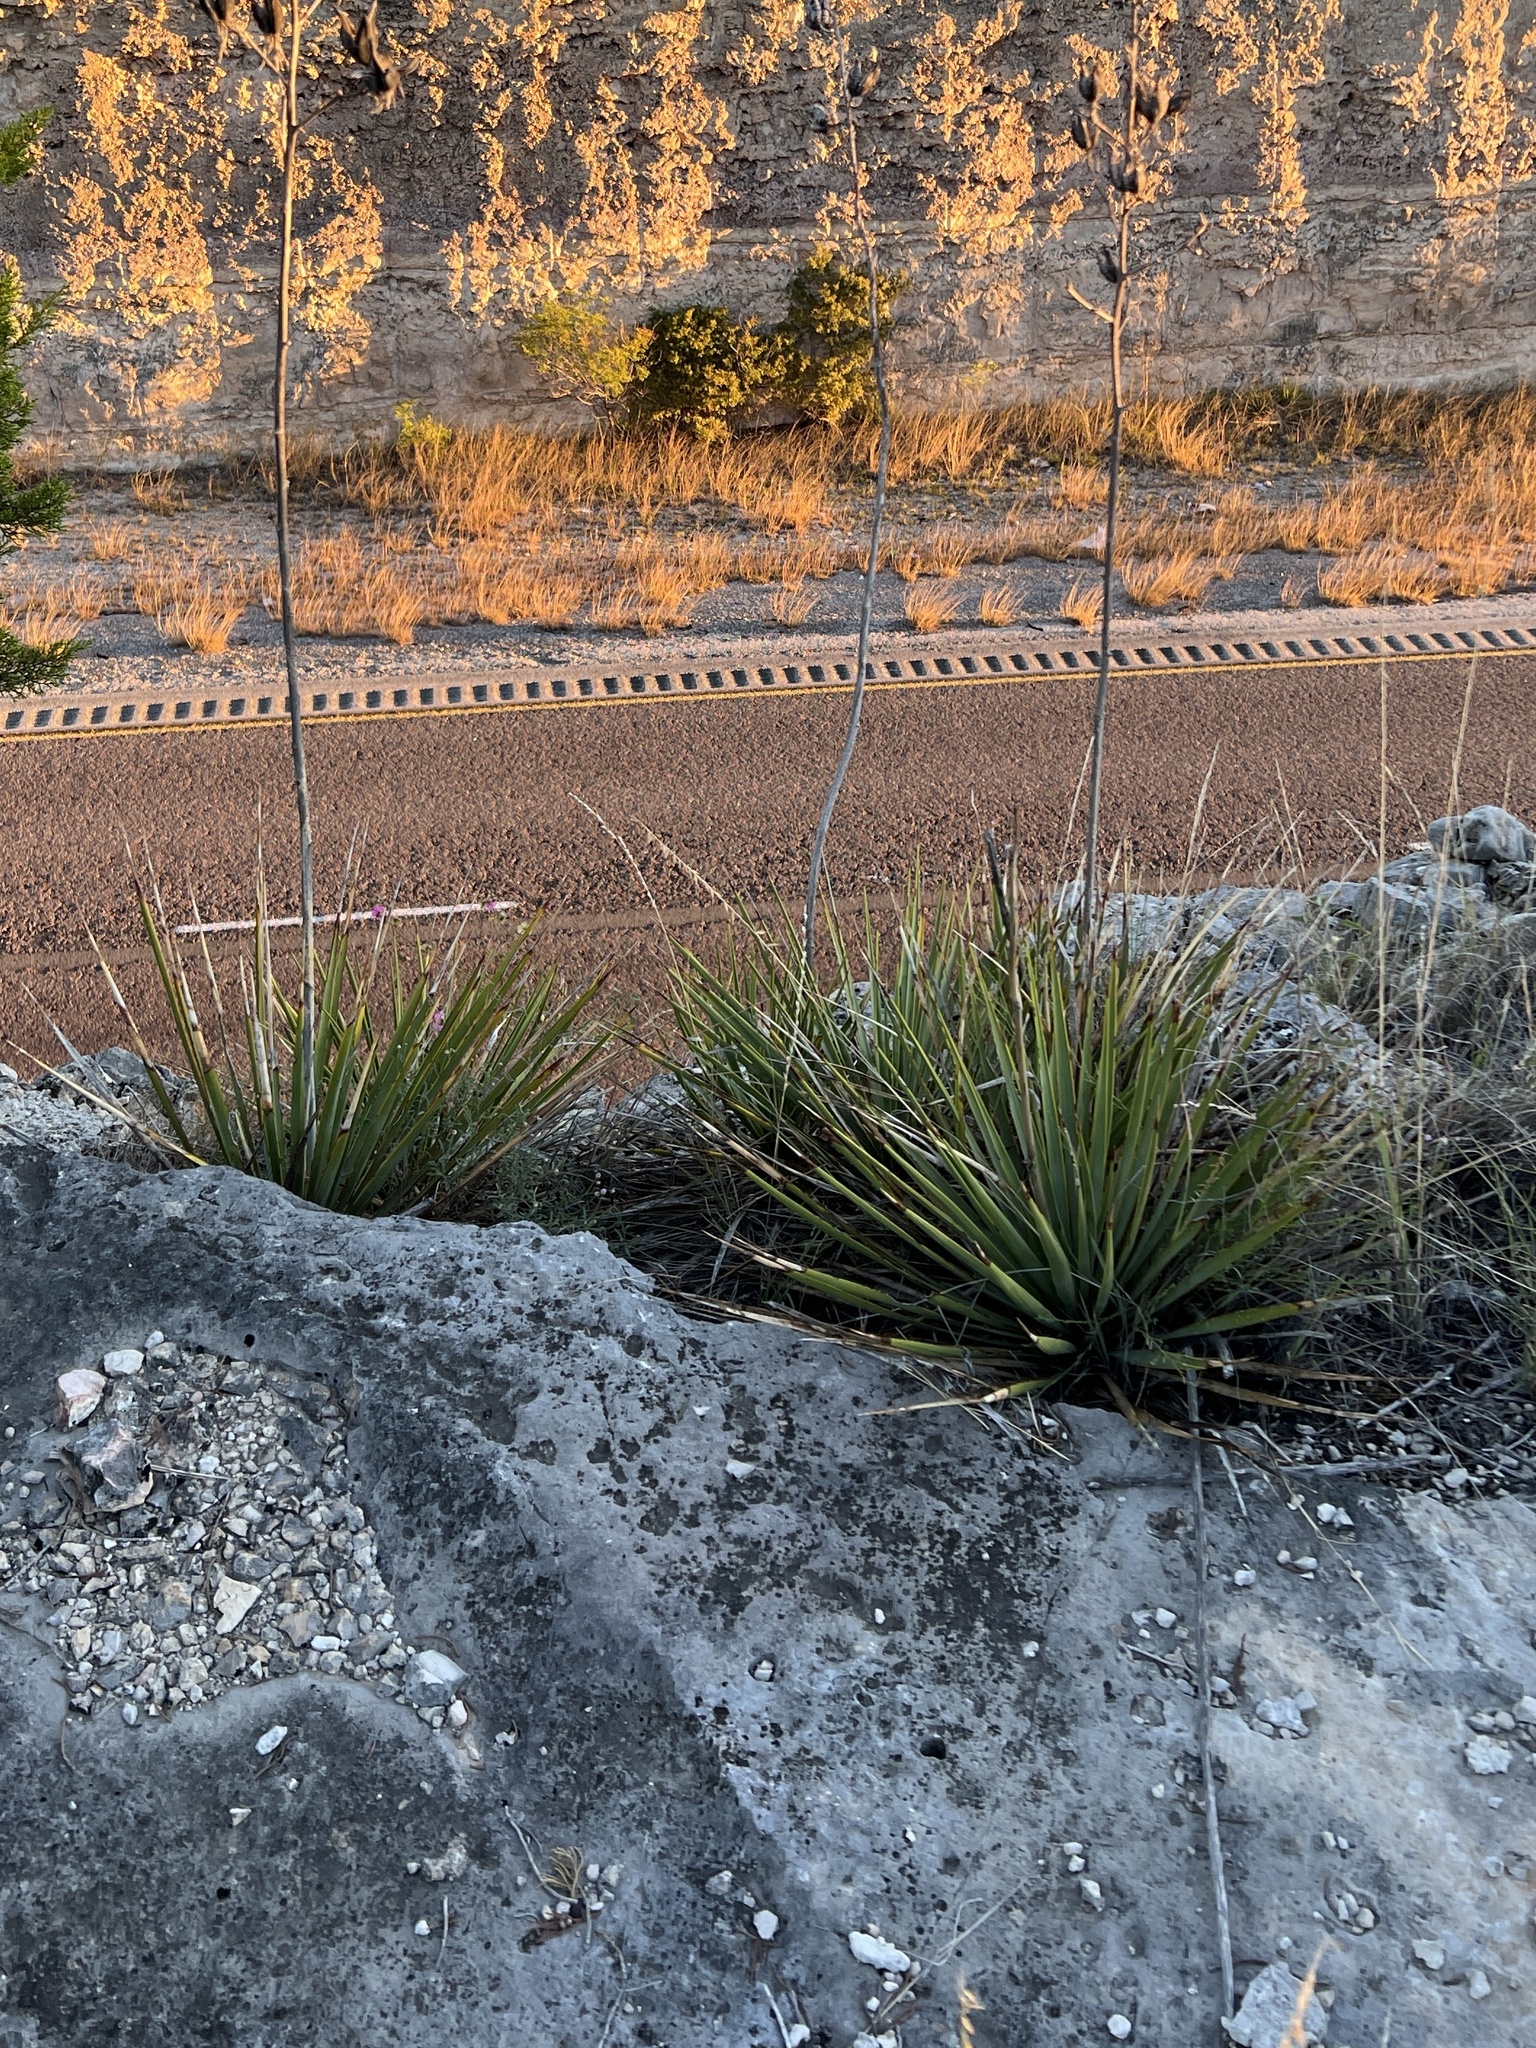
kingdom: Plantae
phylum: Tracheophyta
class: Liliopsida
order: Asparagales
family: Asparagaceae
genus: Yucca
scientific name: Yucca reverchonii
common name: San angelo yucca
